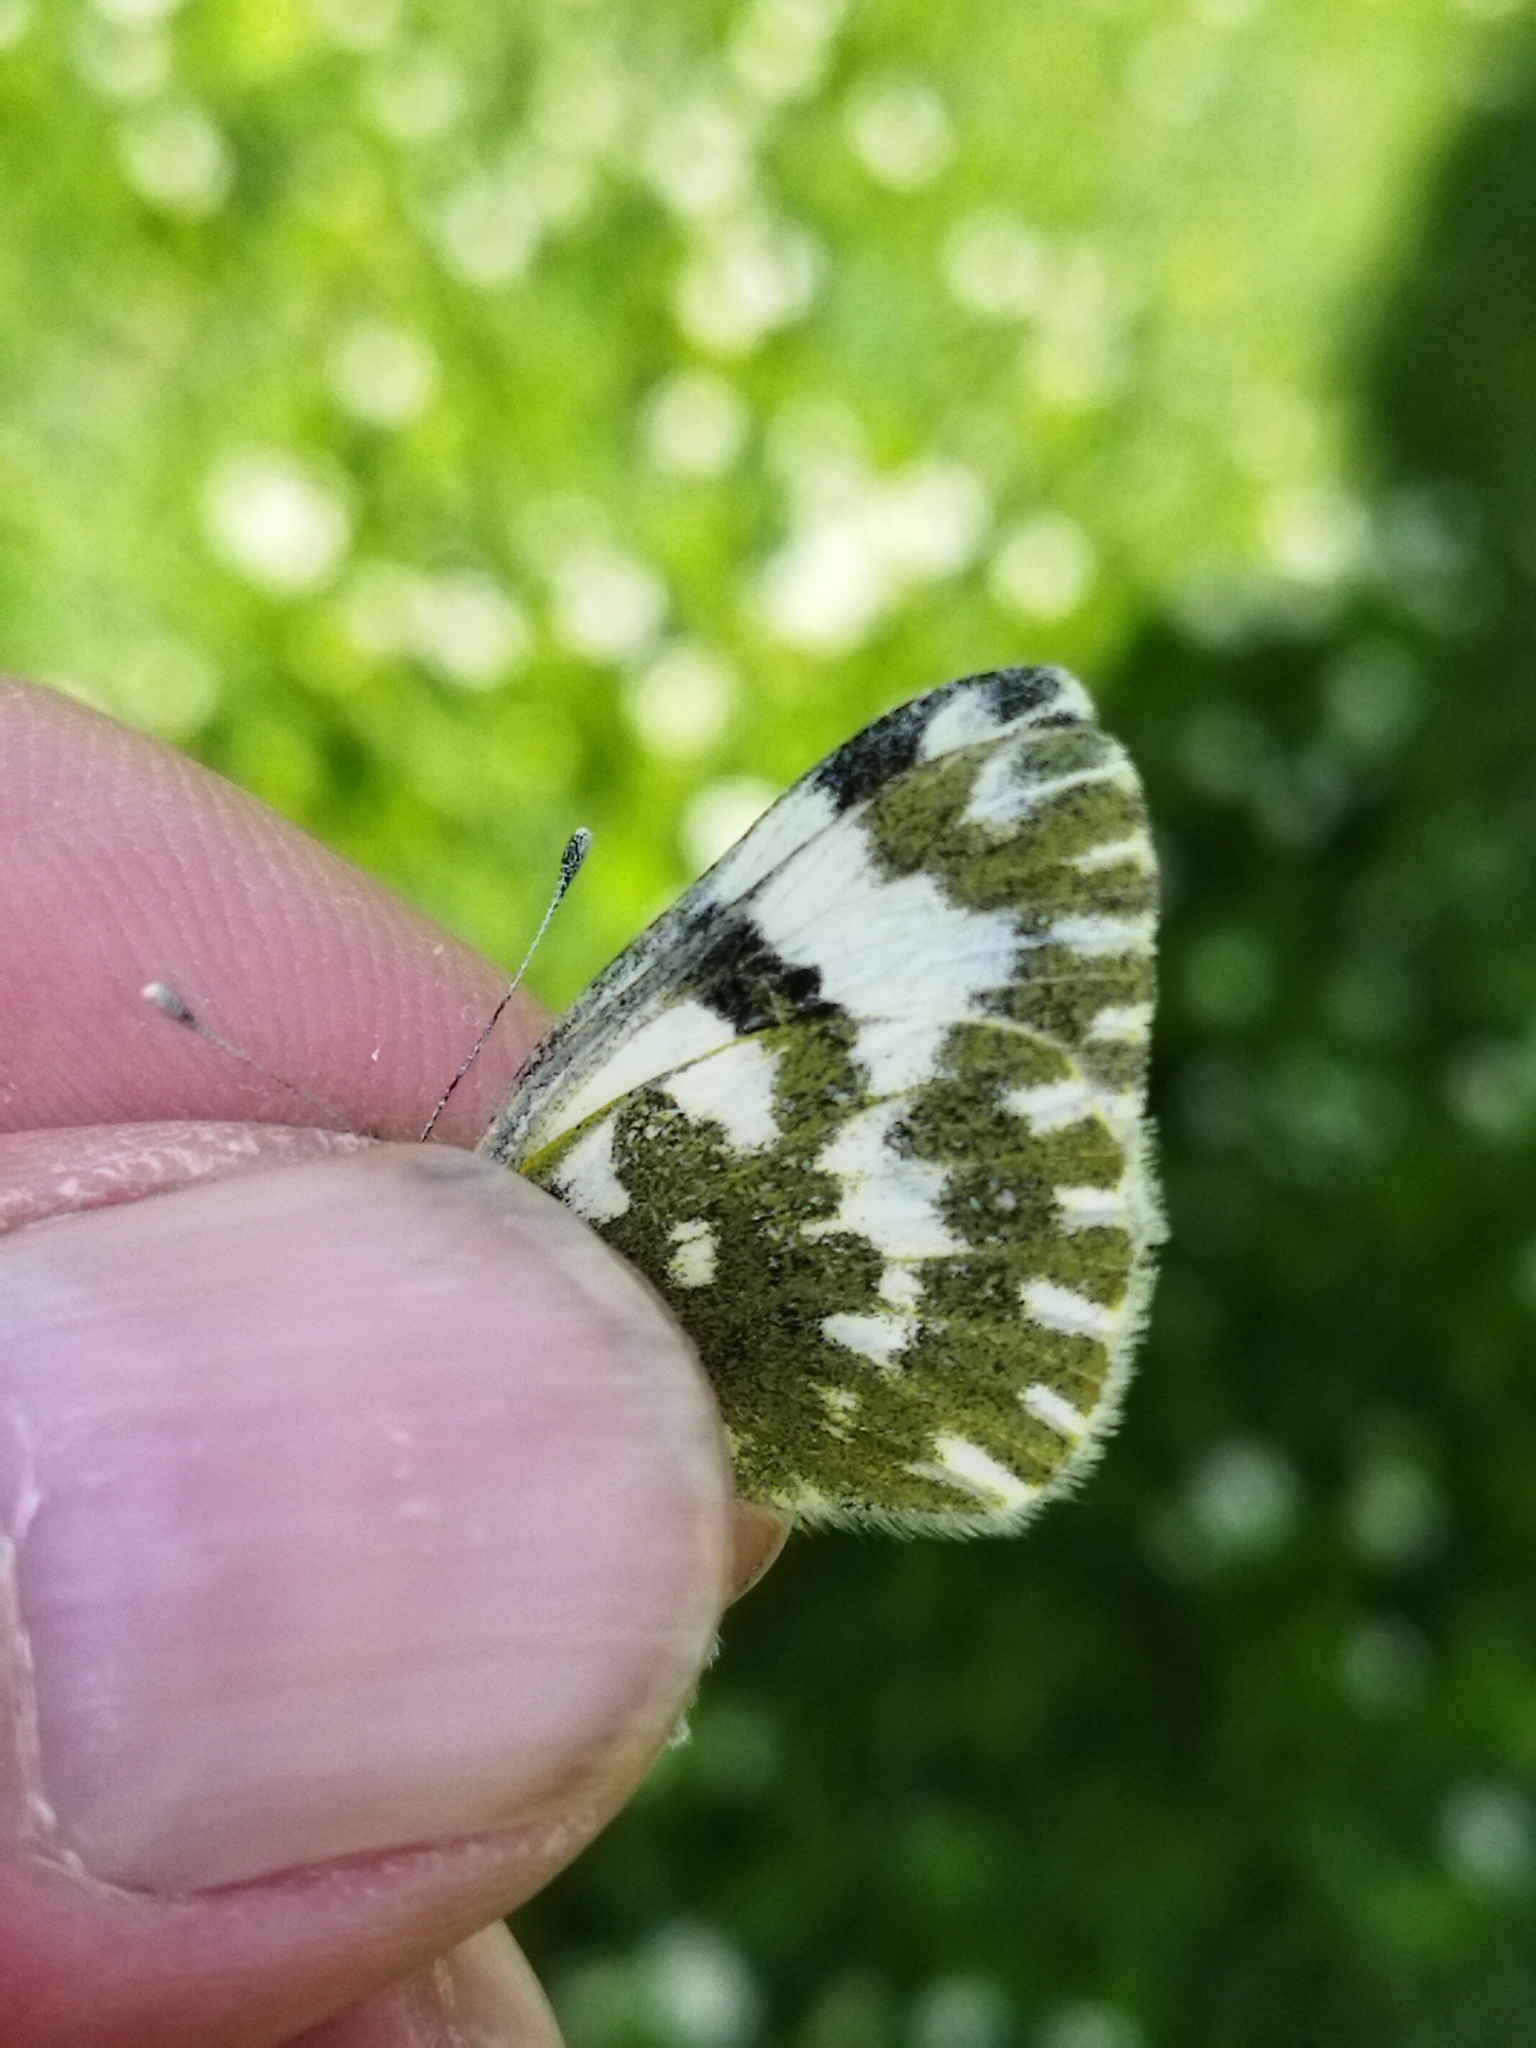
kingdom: Animalia
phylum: Arthropoda
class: Insecta
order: Lepidoptera
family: Pieridae
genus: Pontia
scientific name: Pontia edusa
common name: Eastern bath white
